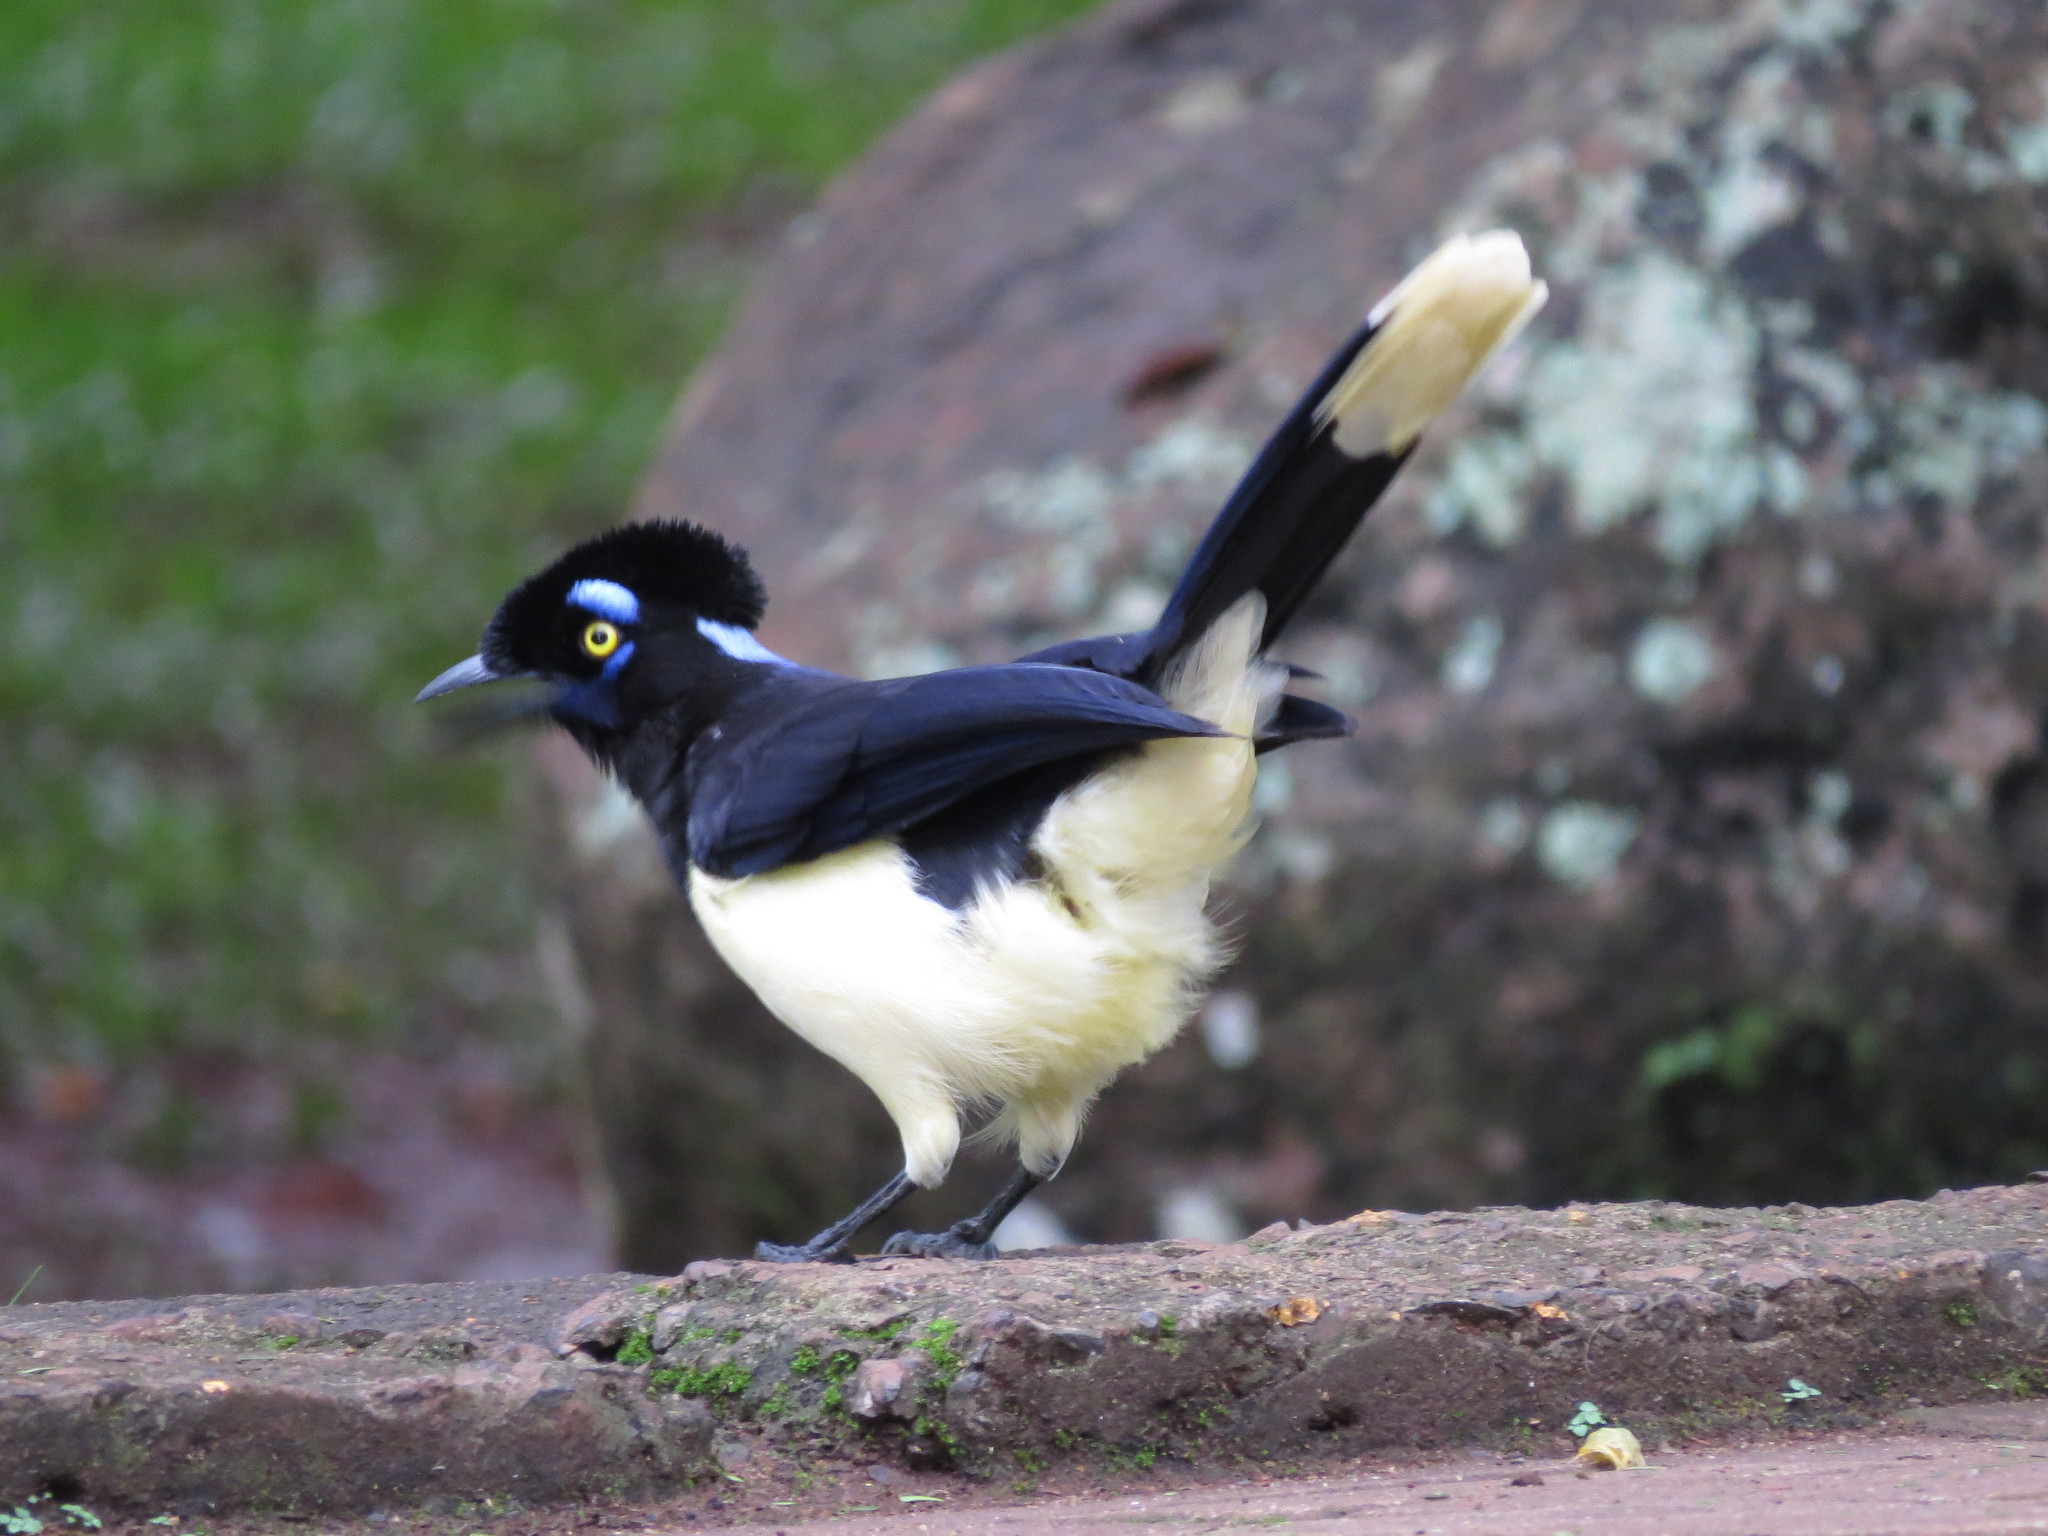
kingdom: Animalia
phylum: Chordata
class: Aves
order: Passeriformes
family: Corvidae
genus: Cyanocorax
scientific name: Cyanocorax chrysops
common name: Plush-crested jay
